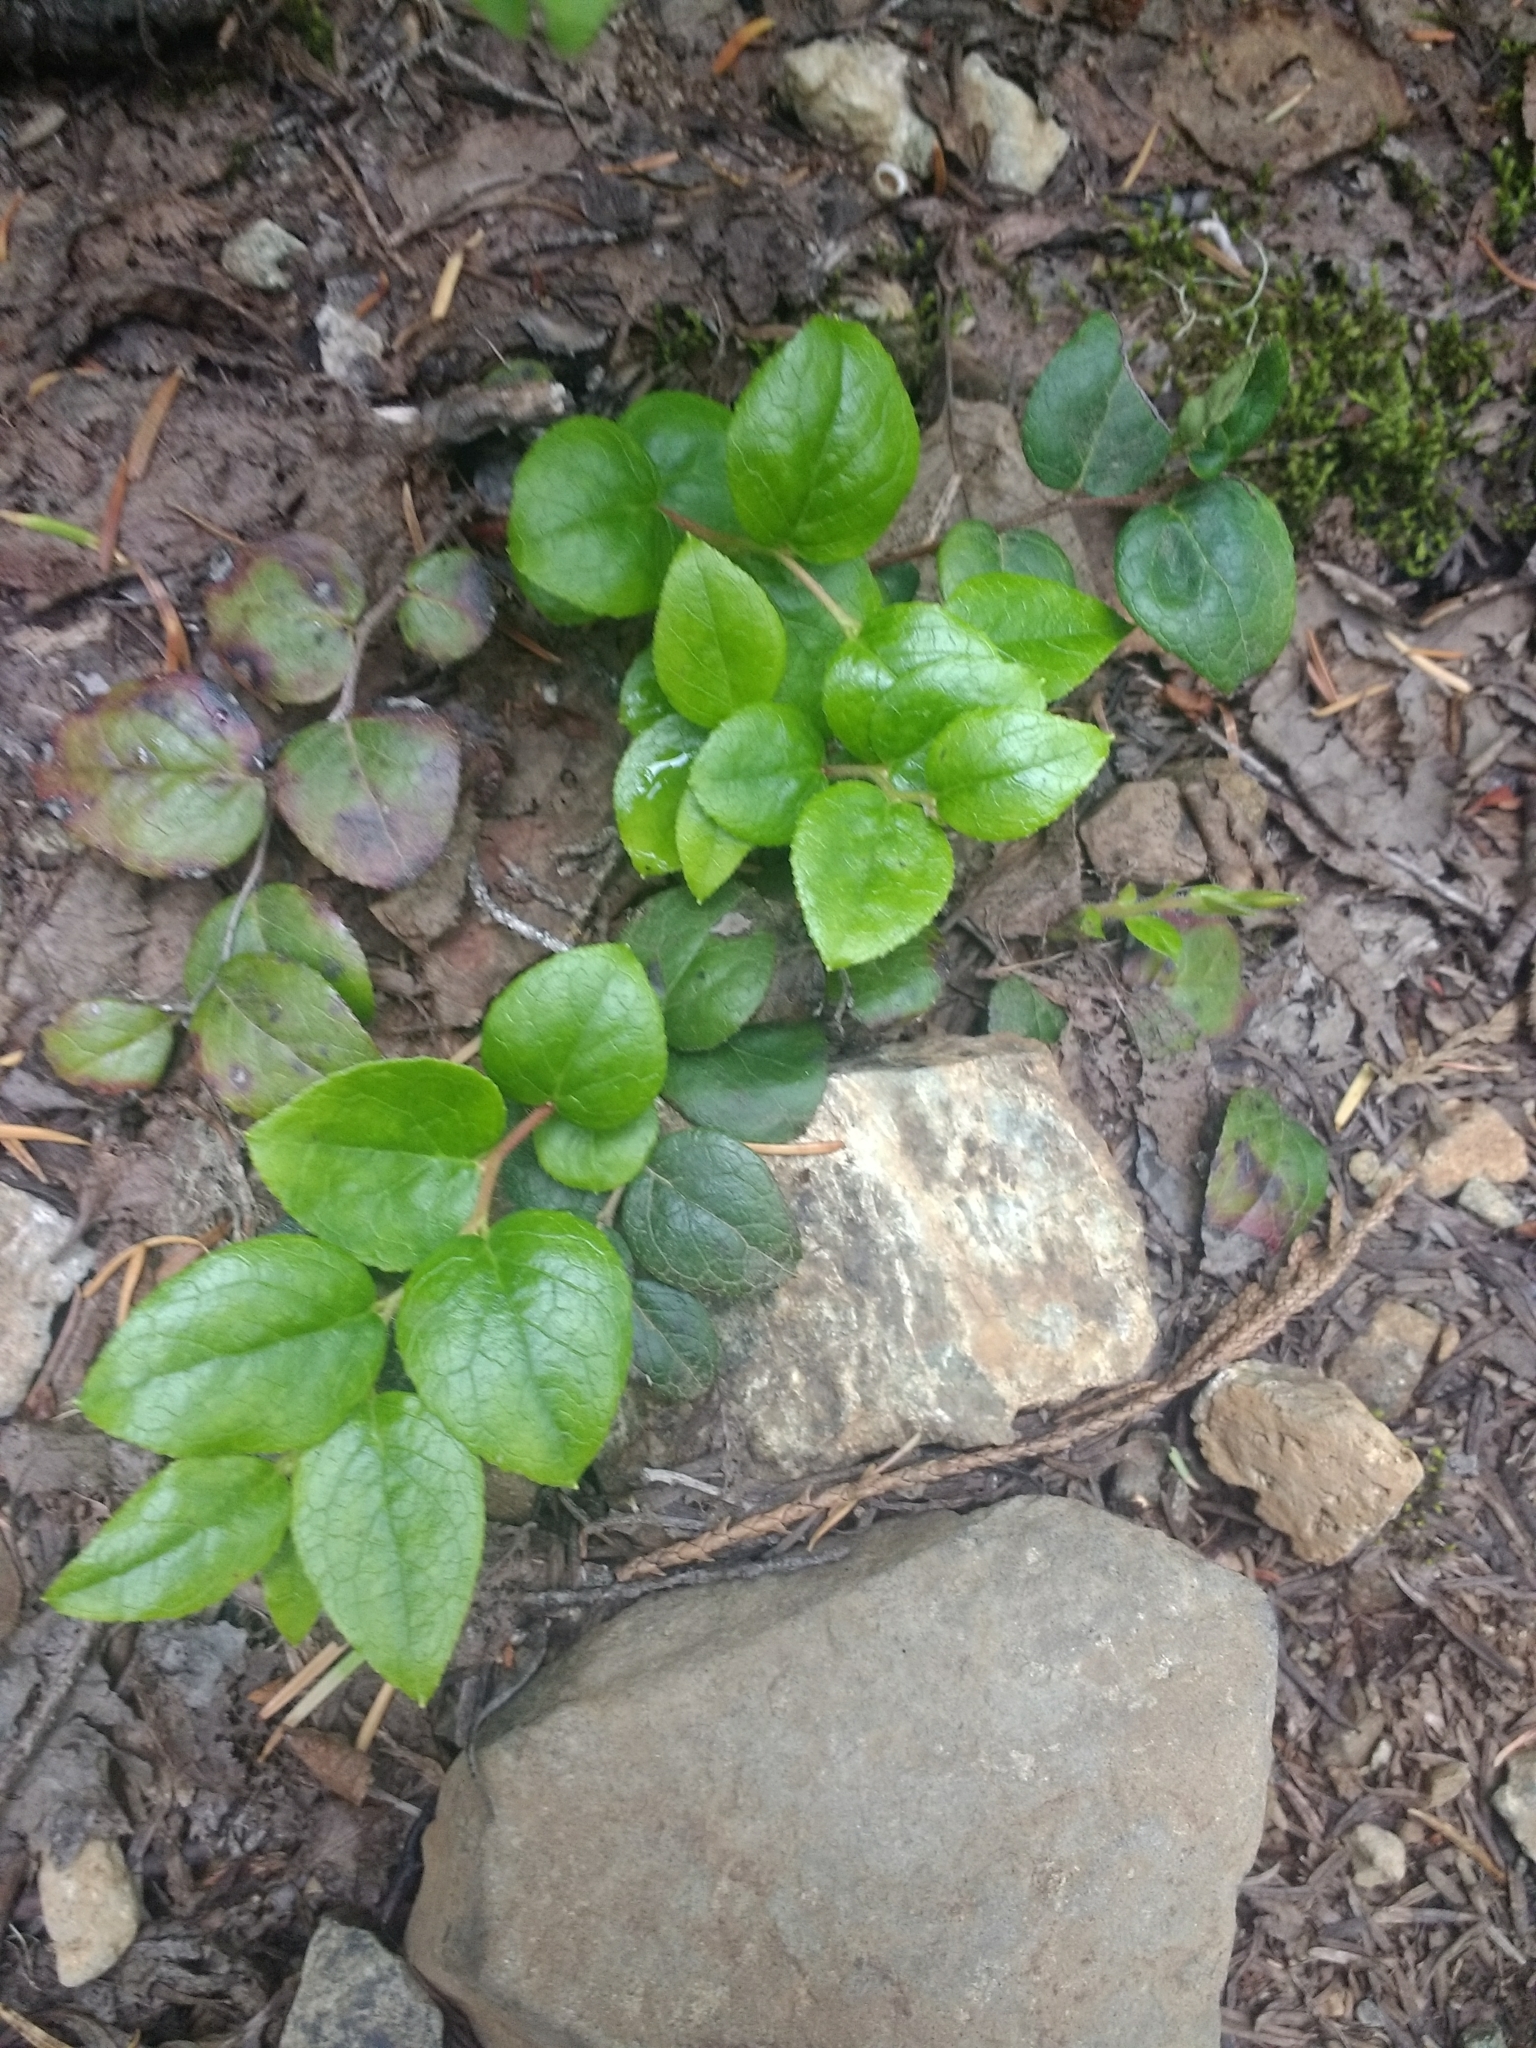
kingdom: Plantae
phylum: Tracheophyta
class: Magnoliopsida
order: Ericales
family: Ericaceae
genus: Gaultheria
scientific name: Gaultheria shallon
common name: Shallon
